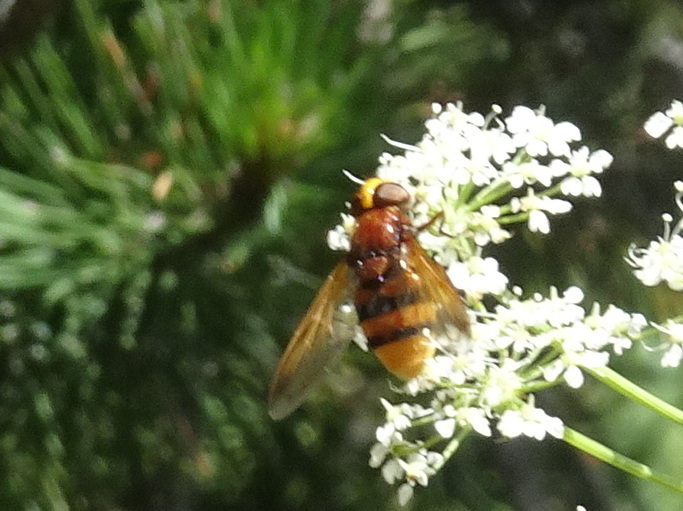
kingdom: Animalia
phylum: Arthropoda
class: Insecta
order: Diptera
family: Syrphidae
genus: Volucella
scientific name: Volucella zonaria
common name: Hornet hoverfly
